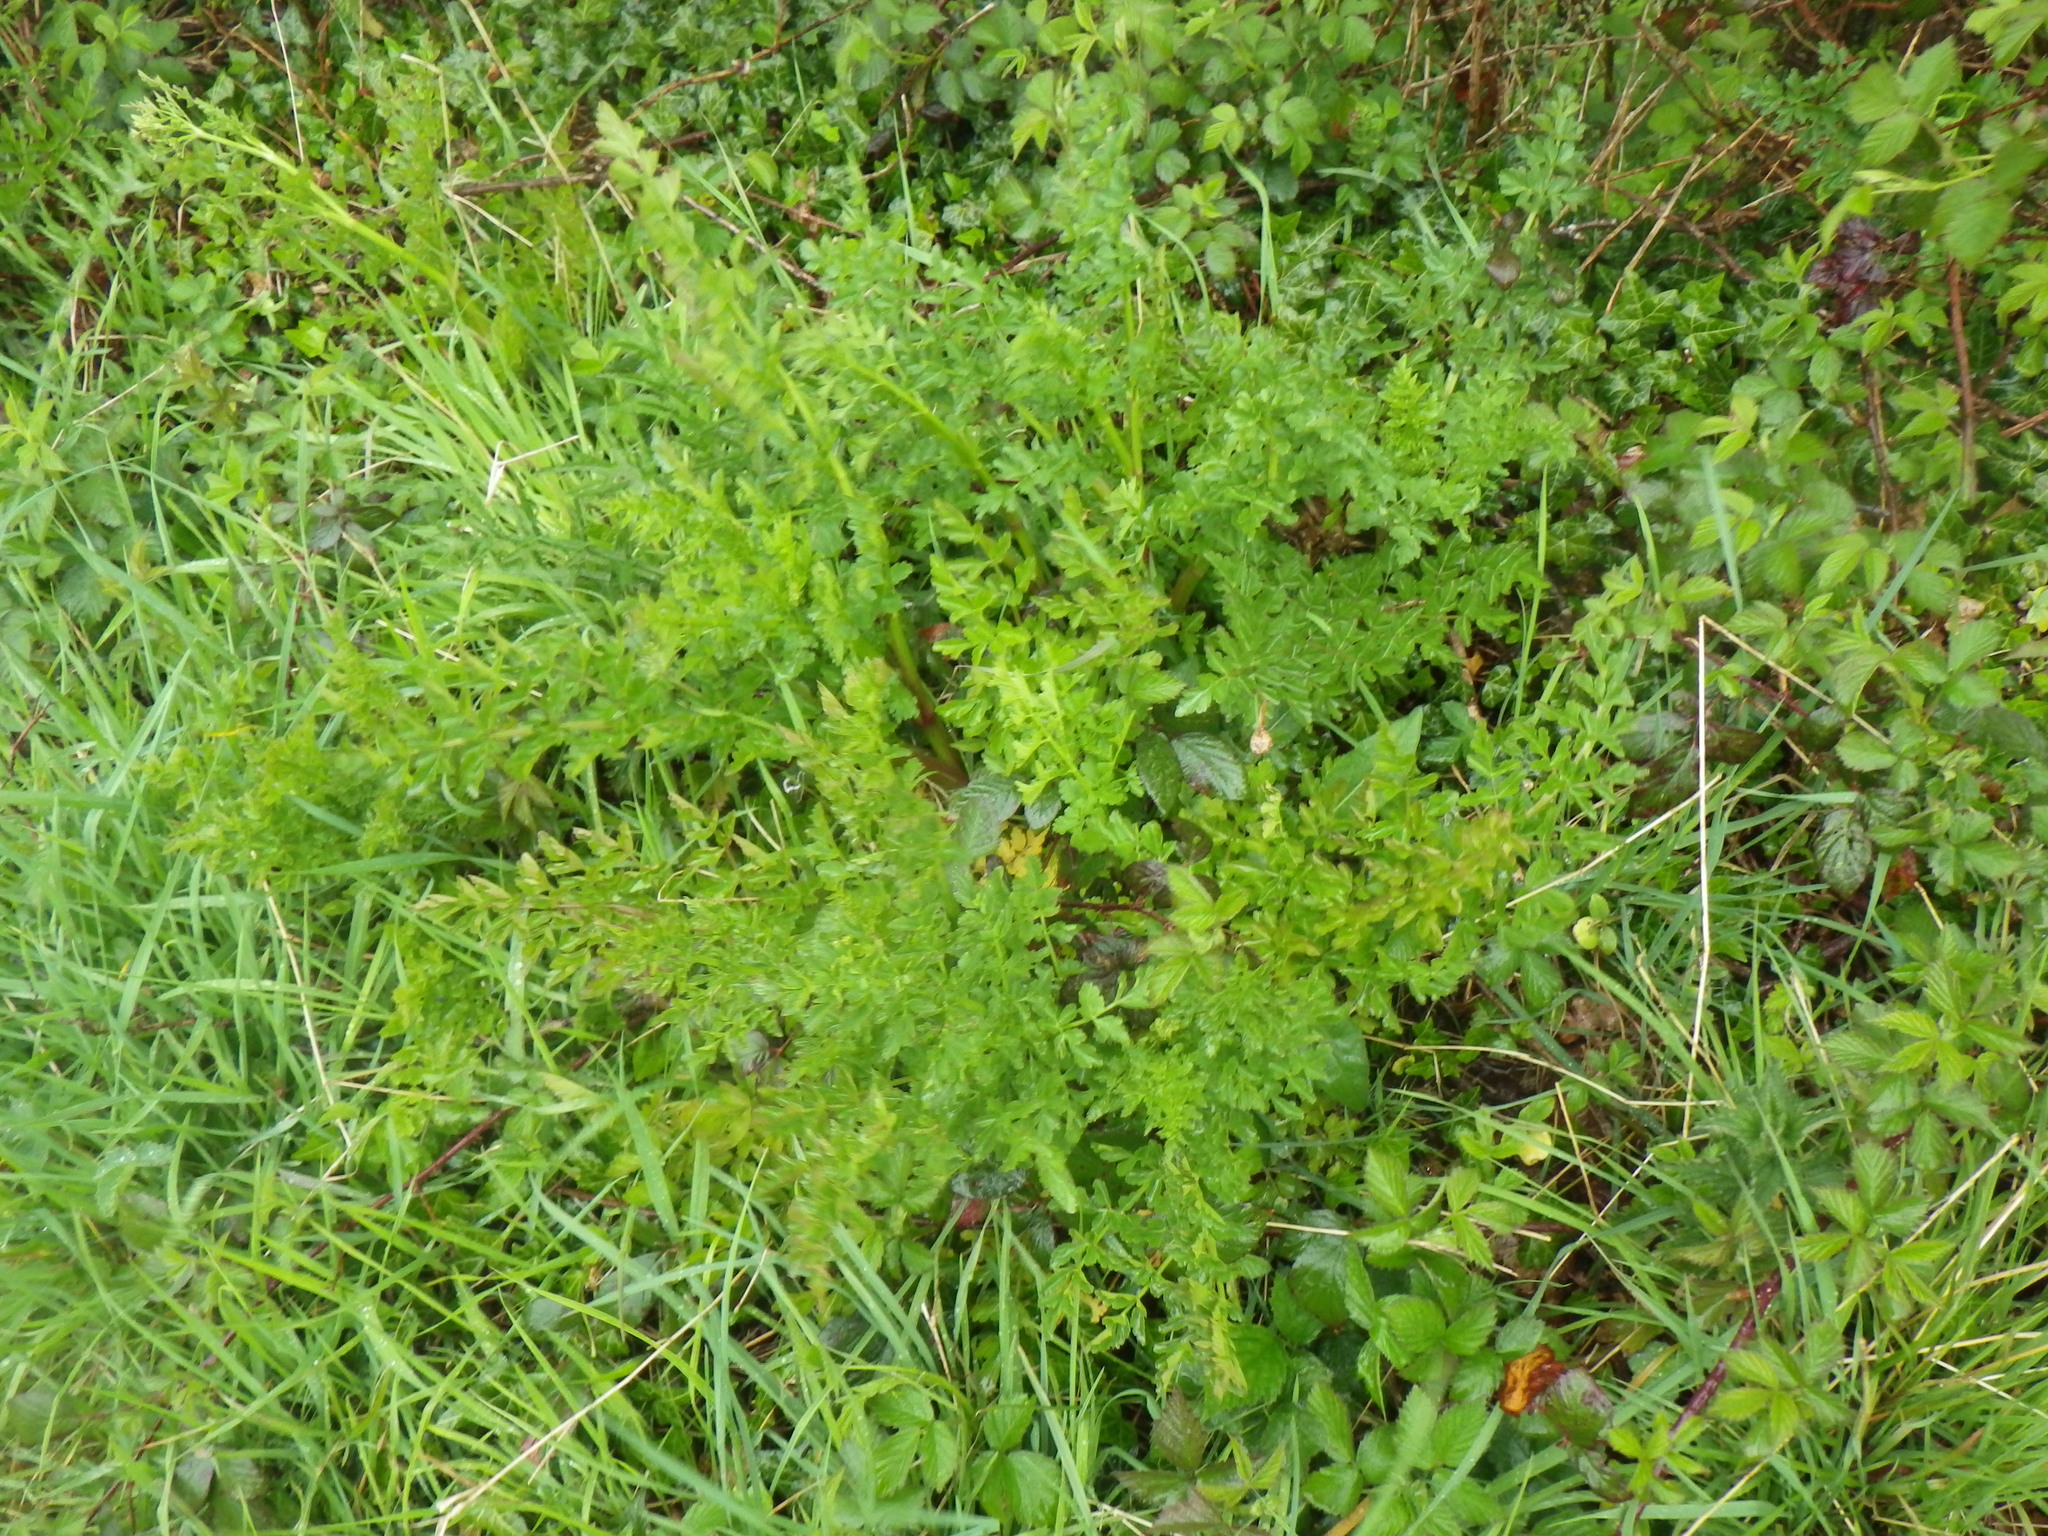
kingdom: Plantae
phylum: Tracheophyta
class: Magnoliopsida
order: Apiales
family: Apiaceae
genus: Oenanthe
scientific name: Oenanthe crocata
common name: Hemlock water-dropwort
